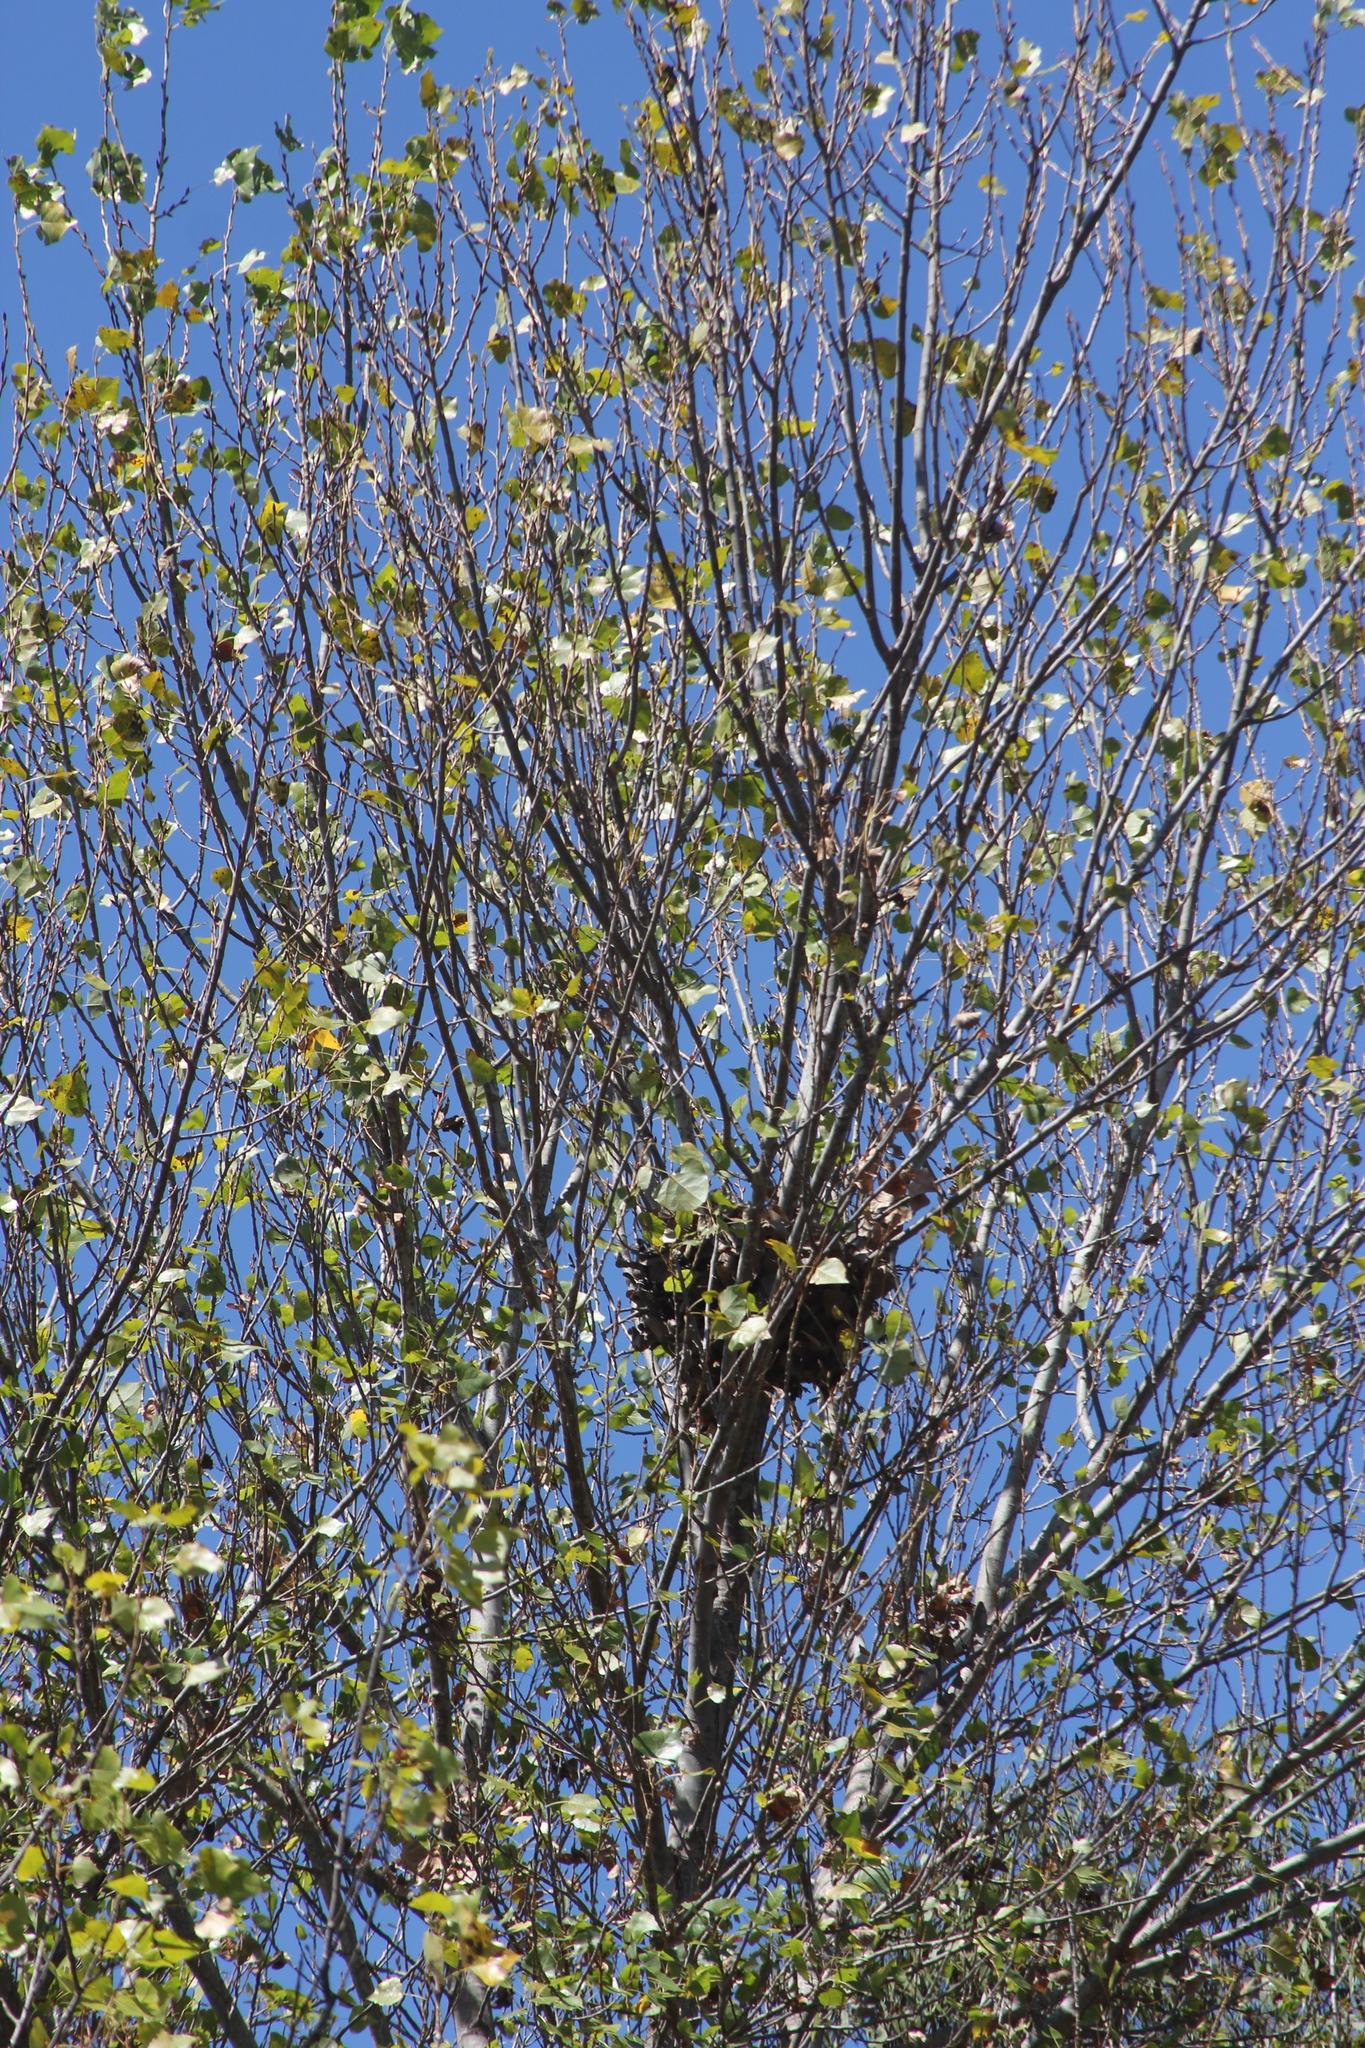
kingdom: Plantae
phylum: Tracheophyta
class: Magnoliopsida
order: Malpighiales
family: Salicaceae
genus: Populus
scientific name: Populus fremontii
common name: Fremont's cottonwood
